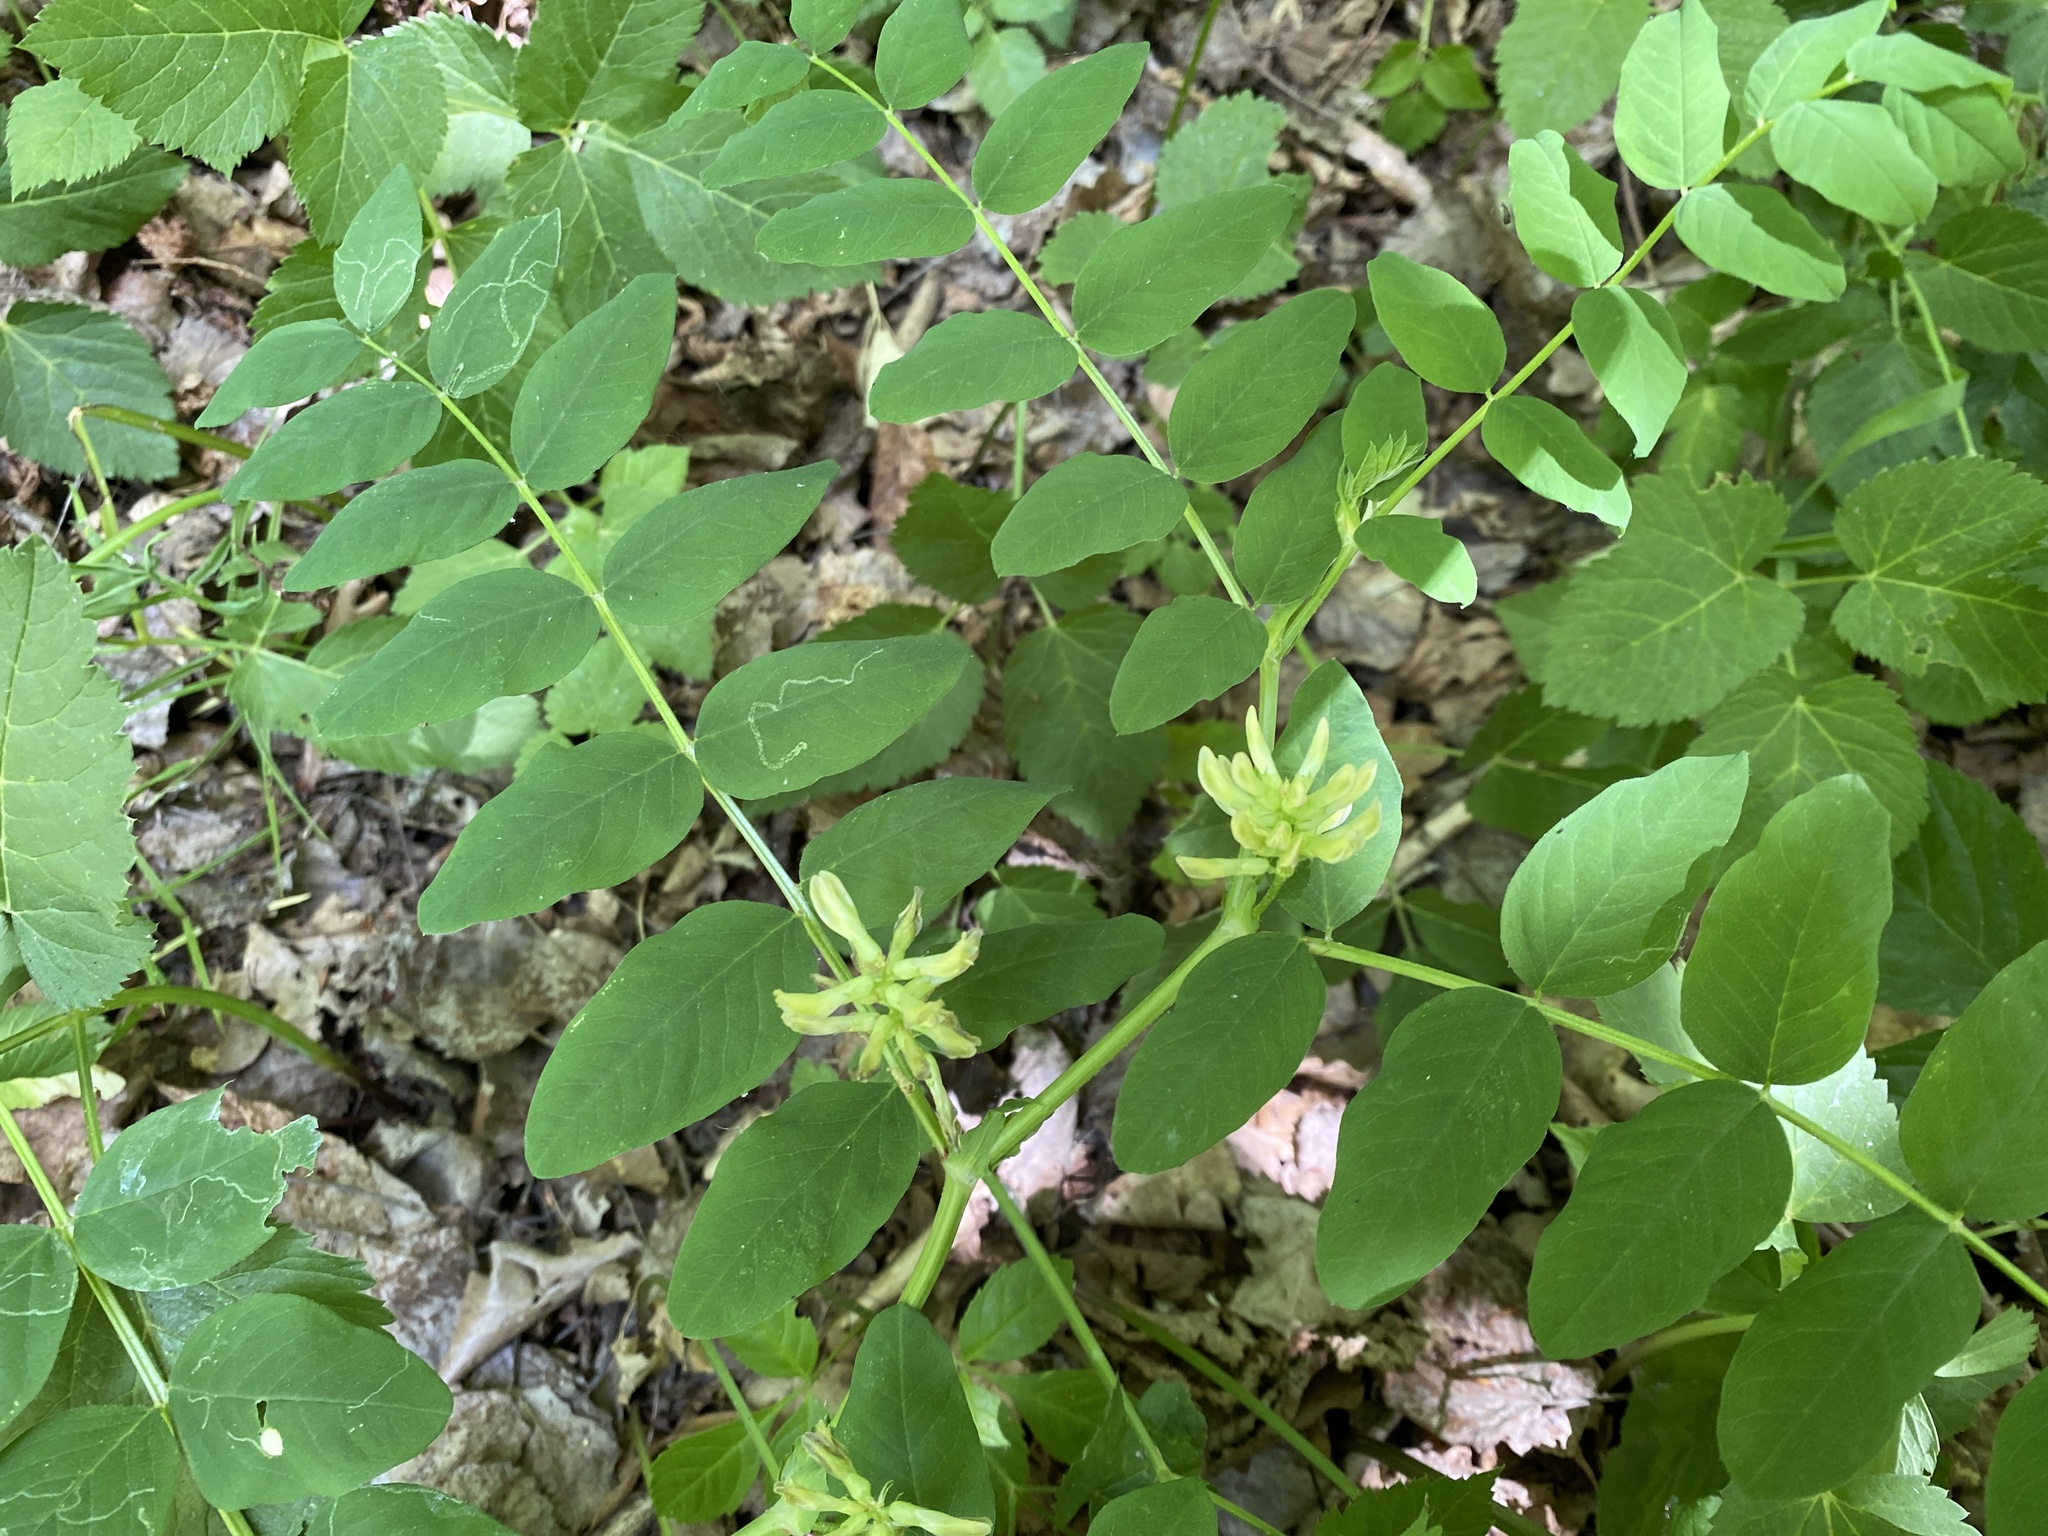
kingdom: Plantae
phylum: Tracheophyta
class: Magnoliopsida
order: Fabales
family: Fabaceae
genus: Astragalus
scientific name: Astragalus glycyphyllos
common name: Wild liquorice
